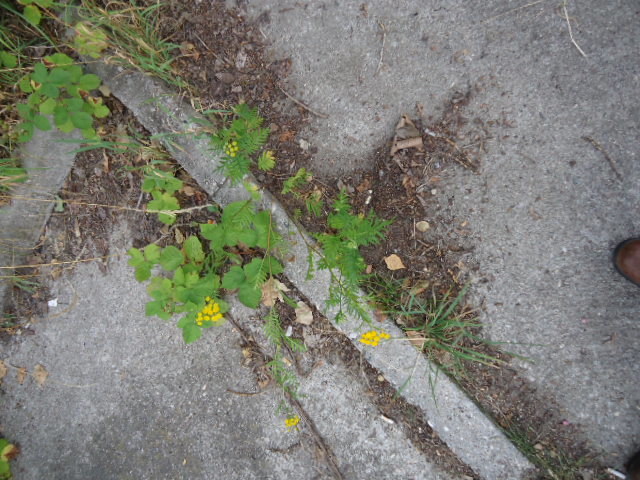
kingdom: Plantae
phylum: Tracheophyta
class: Magnoliopsida
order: Asterales
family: Asteraceae
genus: Tanacetum
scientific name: Tanacetum vulgare
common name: Common tansy
